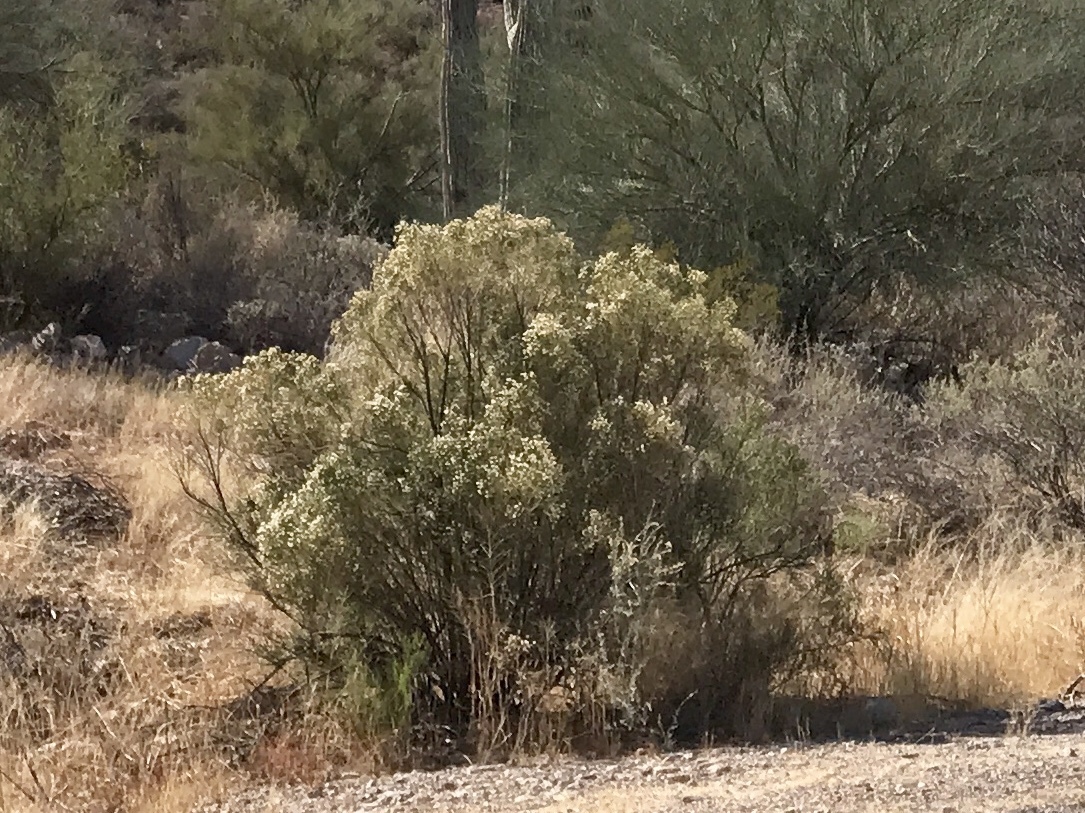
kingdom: Plantae
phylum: Tracheophyta
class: Magnoliopsida
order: Asterales
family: Asteraceae
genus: Baccharis
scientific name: Baccharis sarothroides
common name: Desert-broom
